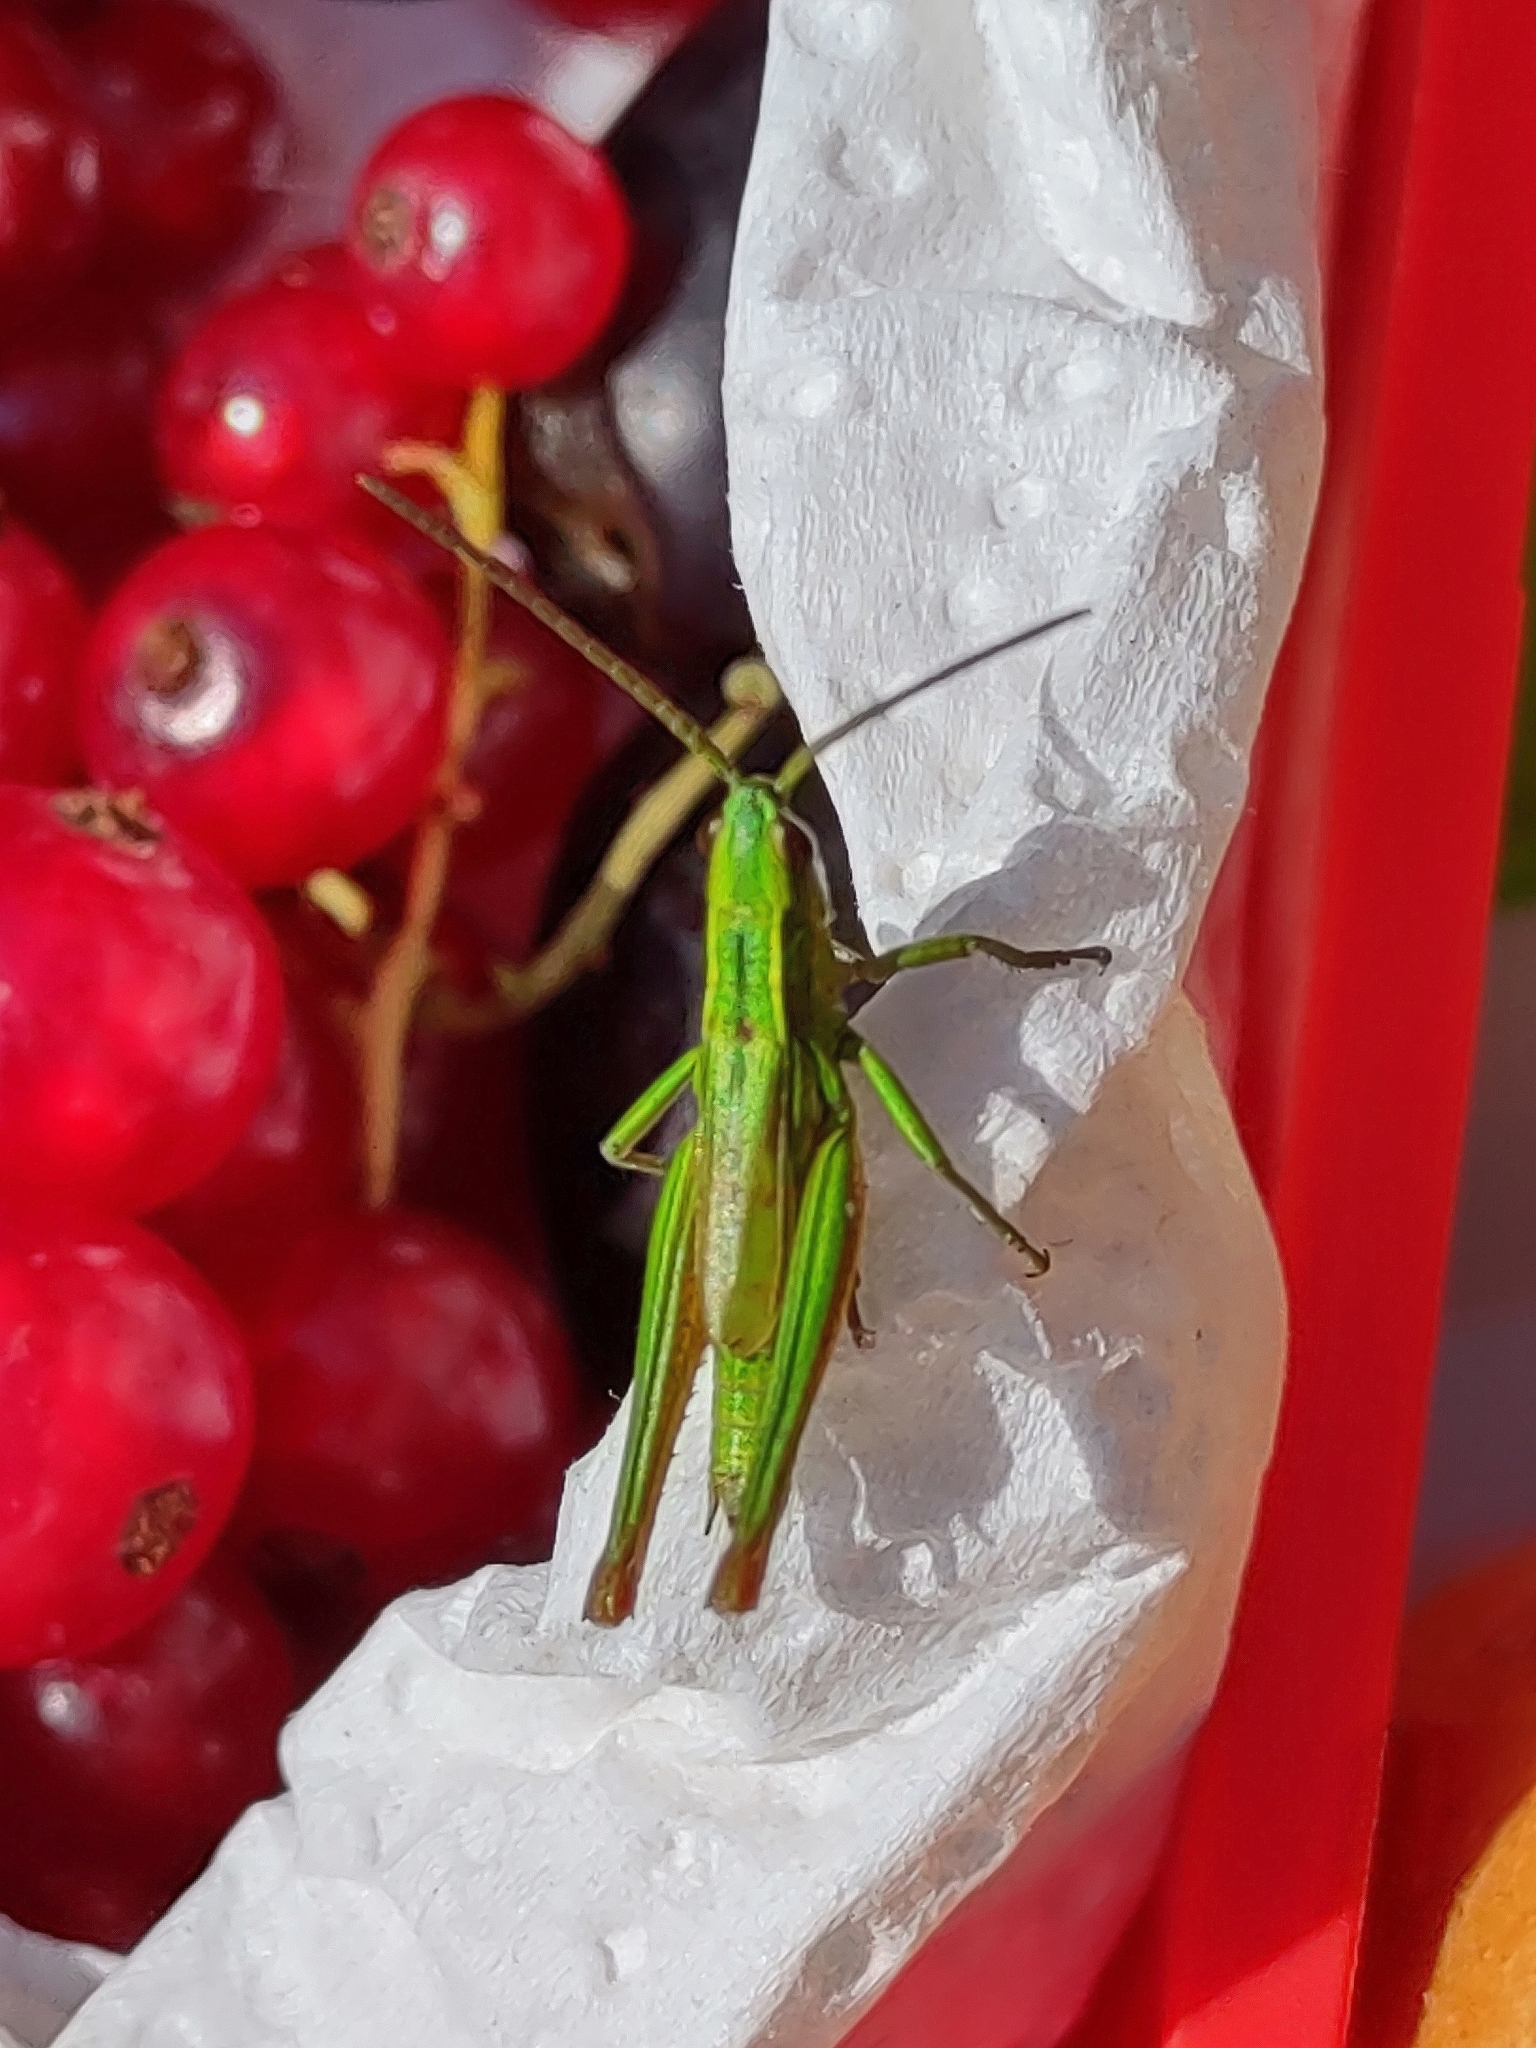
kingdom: Animalia
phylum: Arthropoda
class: Insecta
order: Orthoptera
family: Acrididae
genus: Euthystira
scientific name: Euthystira brachyptera
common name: Small gold grasshopper
